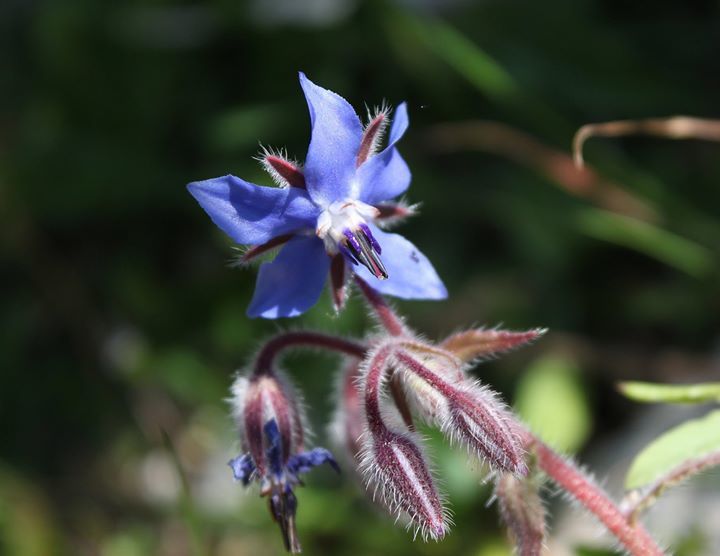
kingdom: Plantae
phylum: Tracheophyta
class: Magnoliopsida
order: Boraginales
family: Boraginaceae
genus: Borago
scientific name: Borago officinalis
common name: Borage
